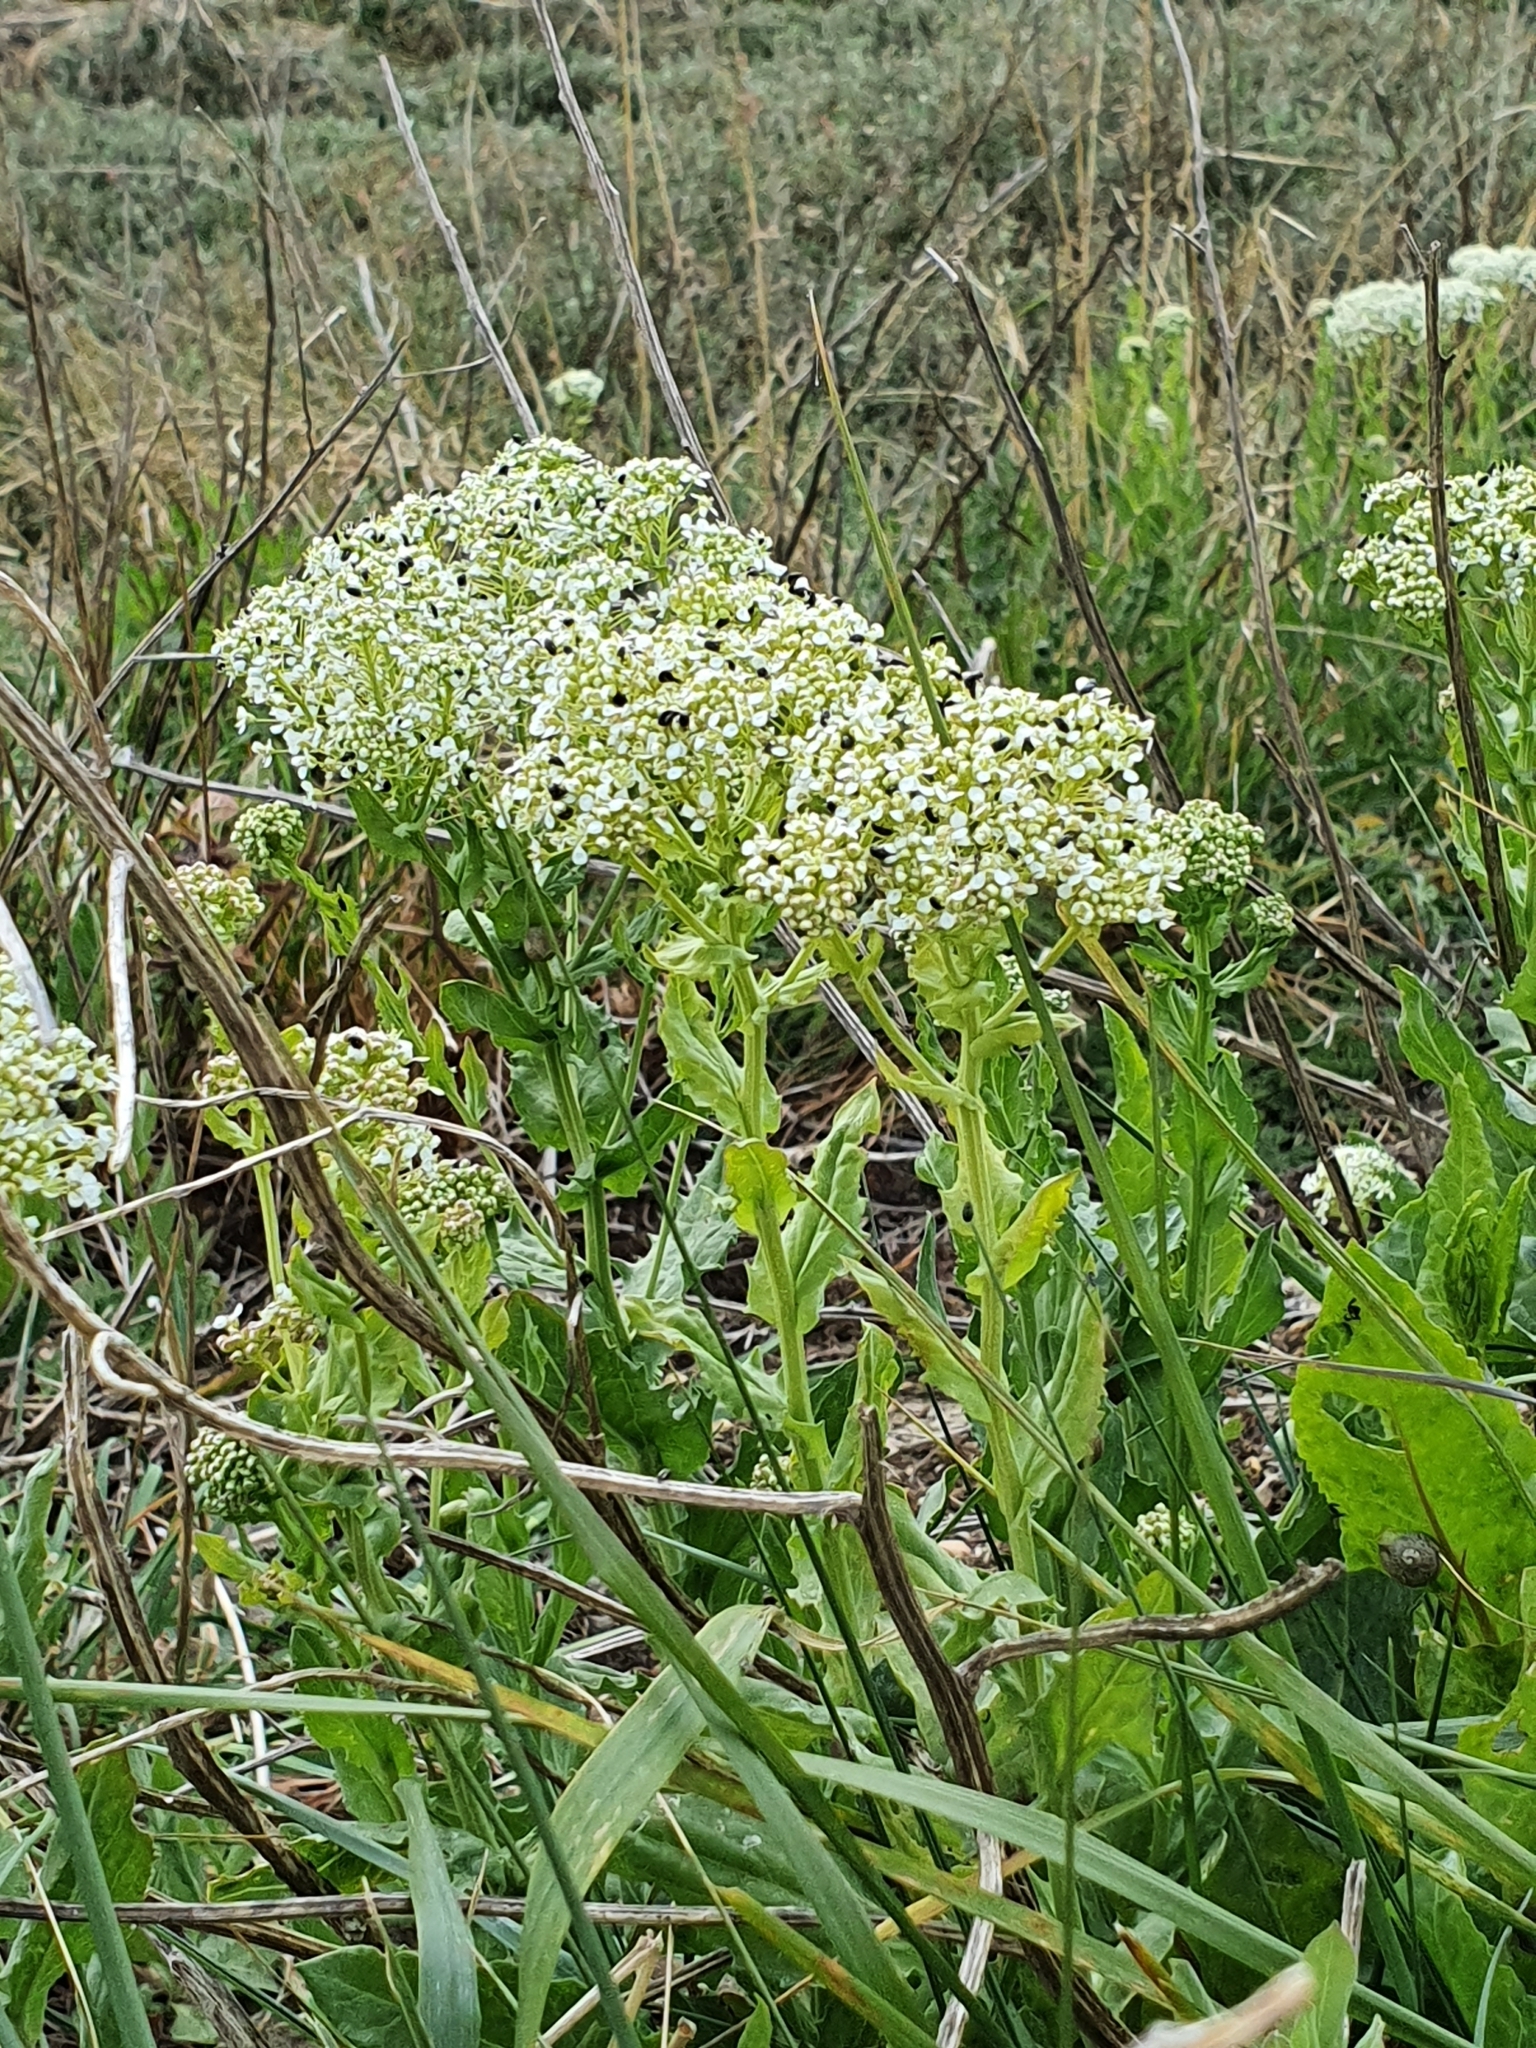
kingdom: Plantae
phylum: Tracheophyta
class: Magnoliopsida
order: Brassicales
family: Brassicaceae
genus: Lepidium
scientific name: Lepidium draba
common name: Hoary cress
